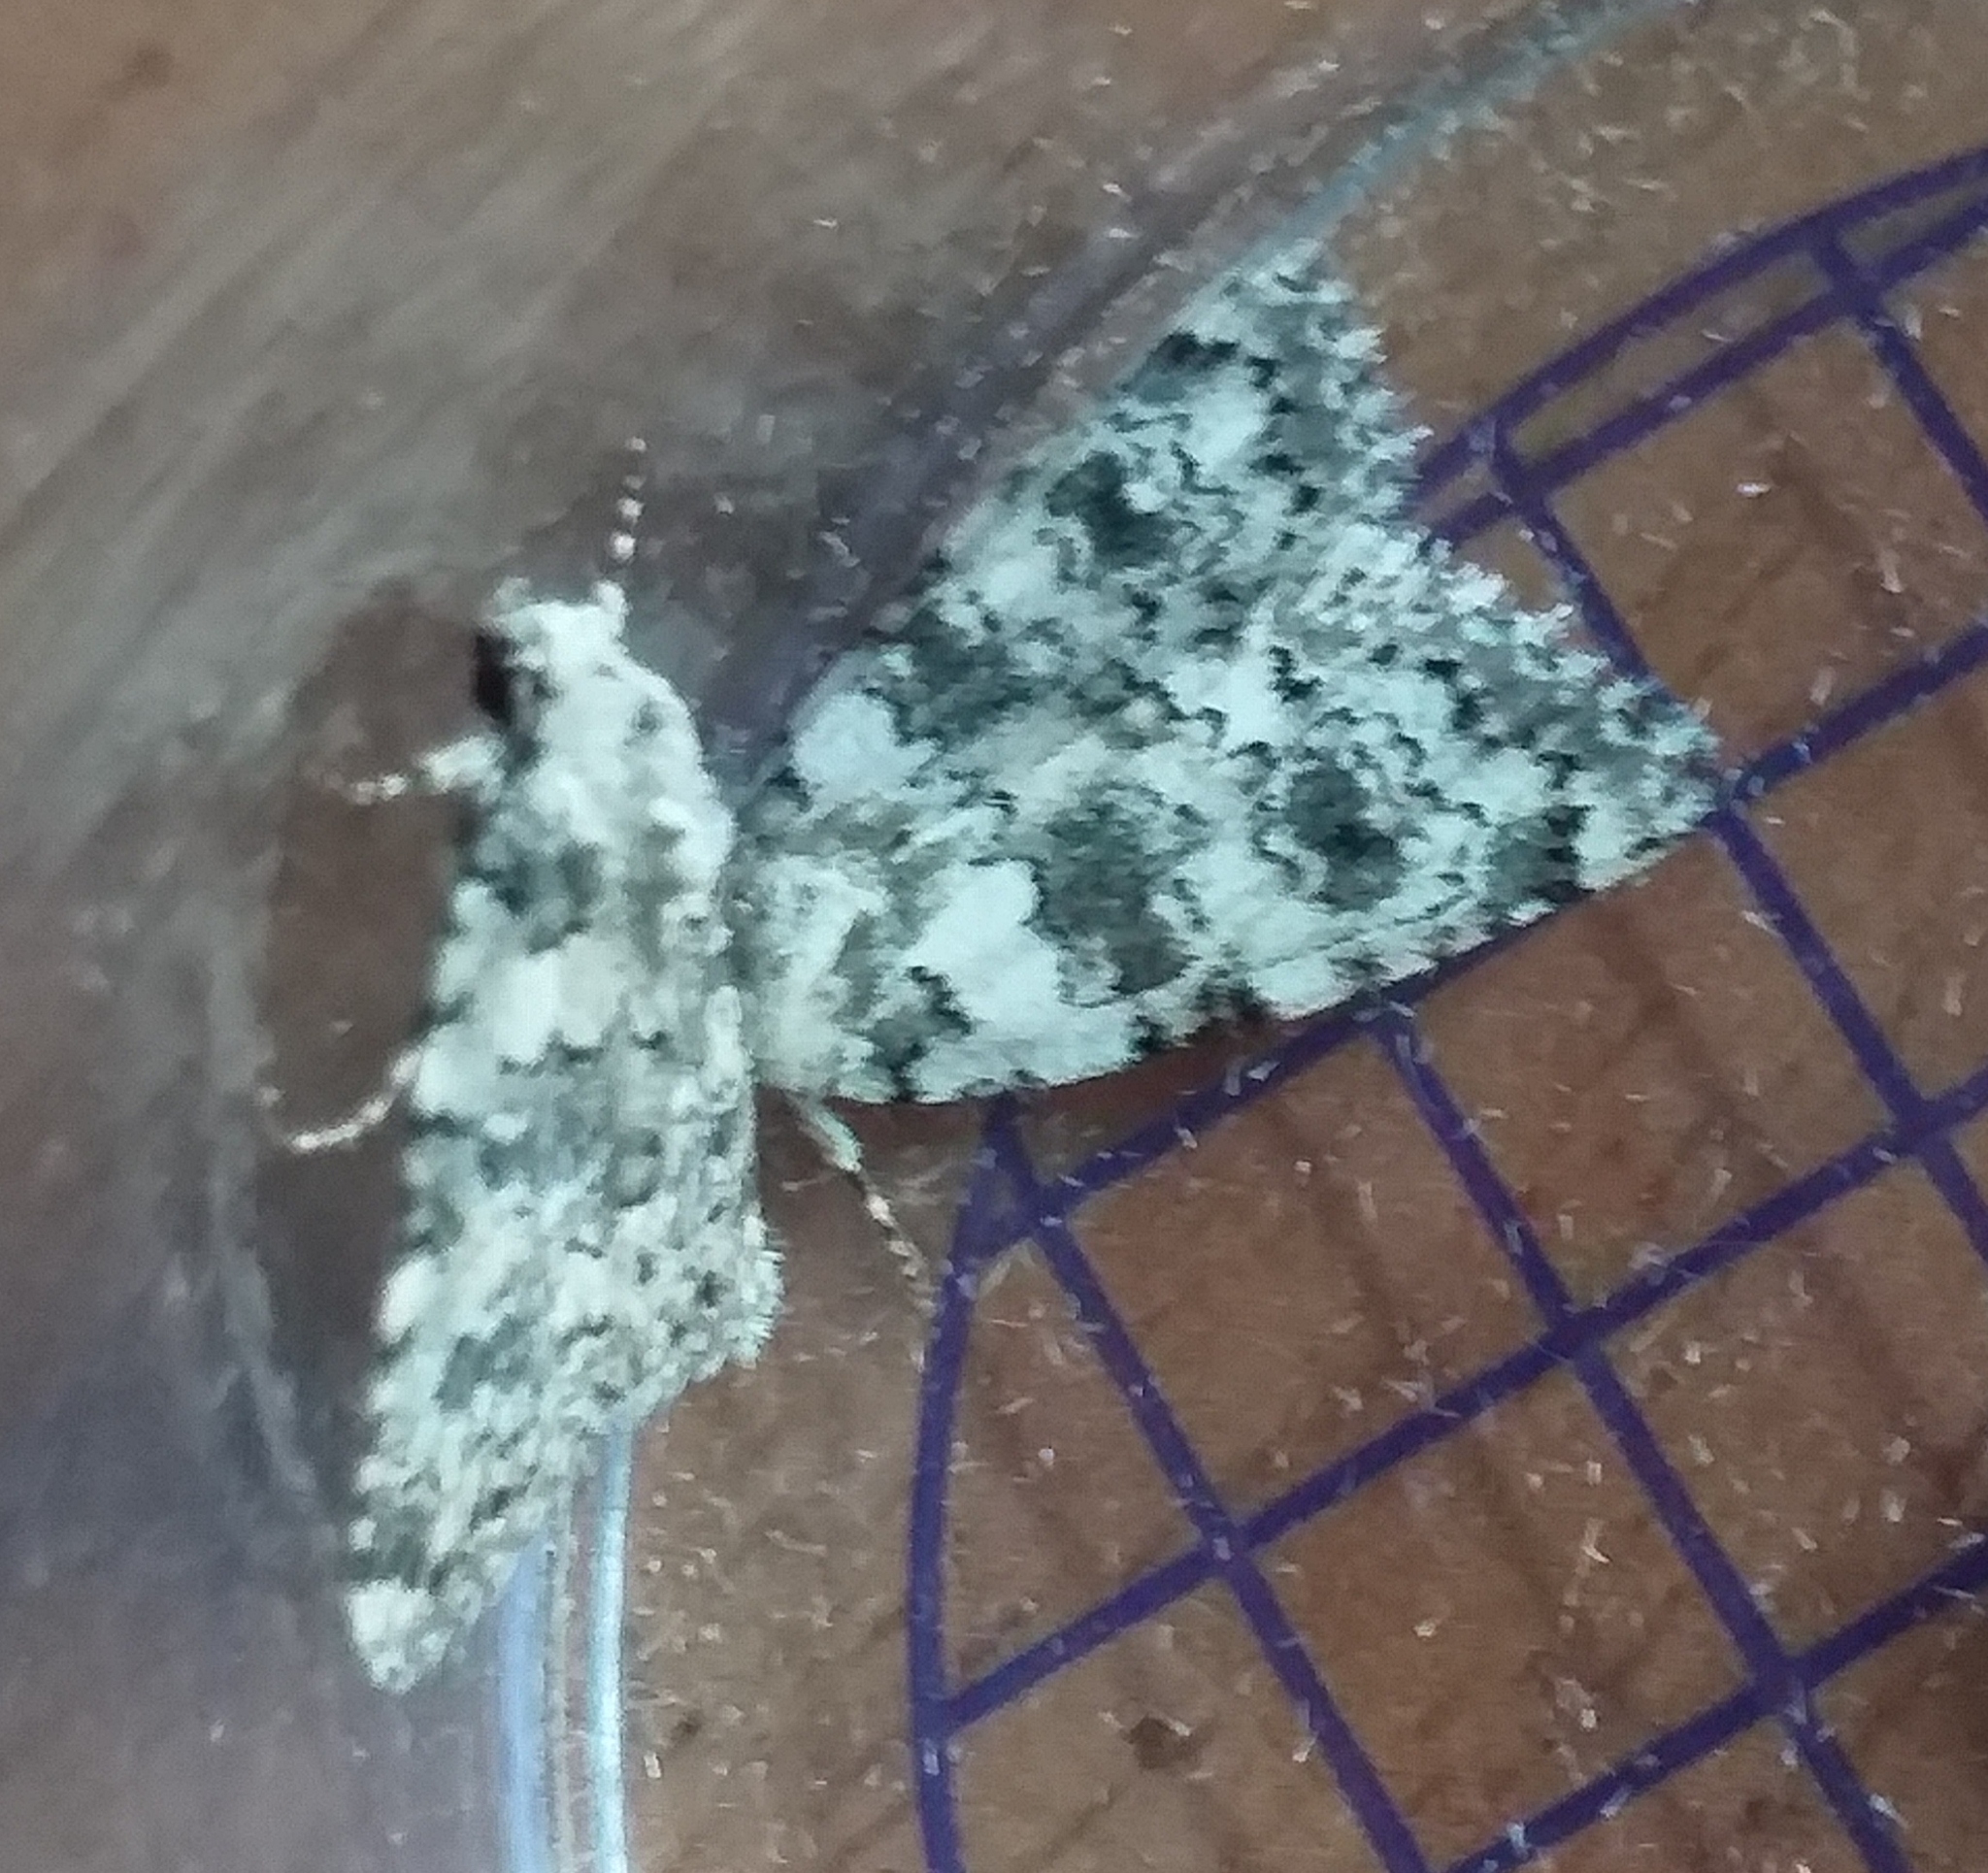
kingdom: Animalia
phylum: Arthropoda
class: Insecta
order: Lepidoptera
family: Noctuidae
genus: Bryophila
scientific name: Bryophila domestica
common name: Marbled beauty
